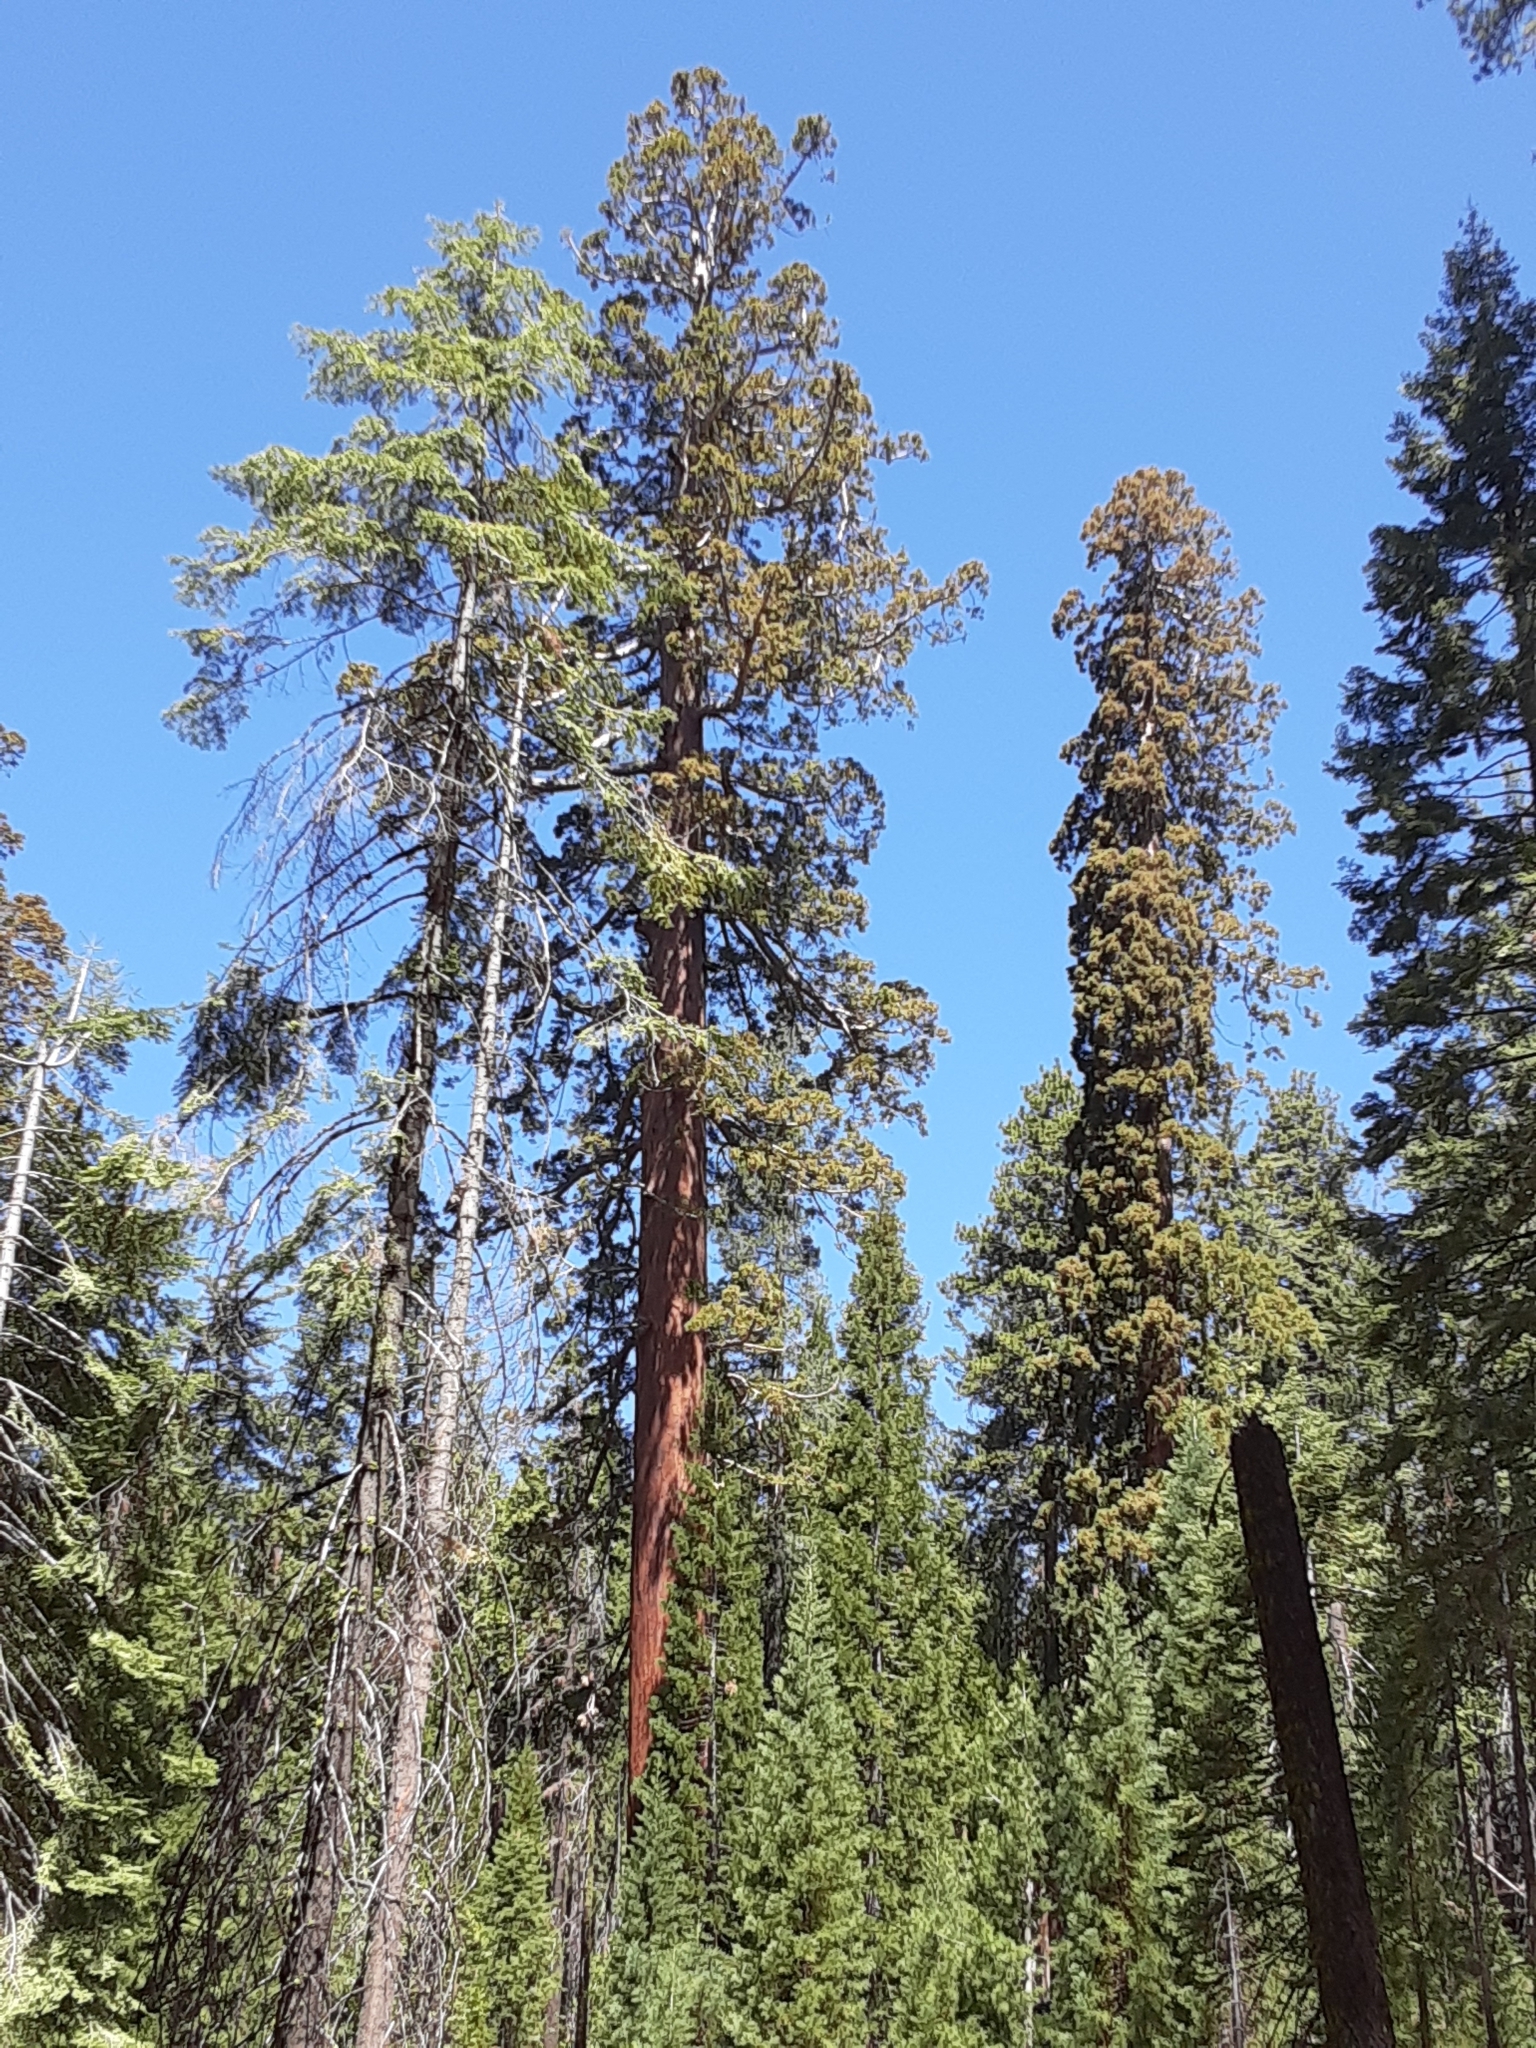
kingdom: Plantae
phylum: Tracheophyta
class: Pinopsida
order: Pinales
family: Cupressaceae
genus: Sequoiadendron
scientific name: Sequoiadendron giganteum
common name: Wellingtonia
